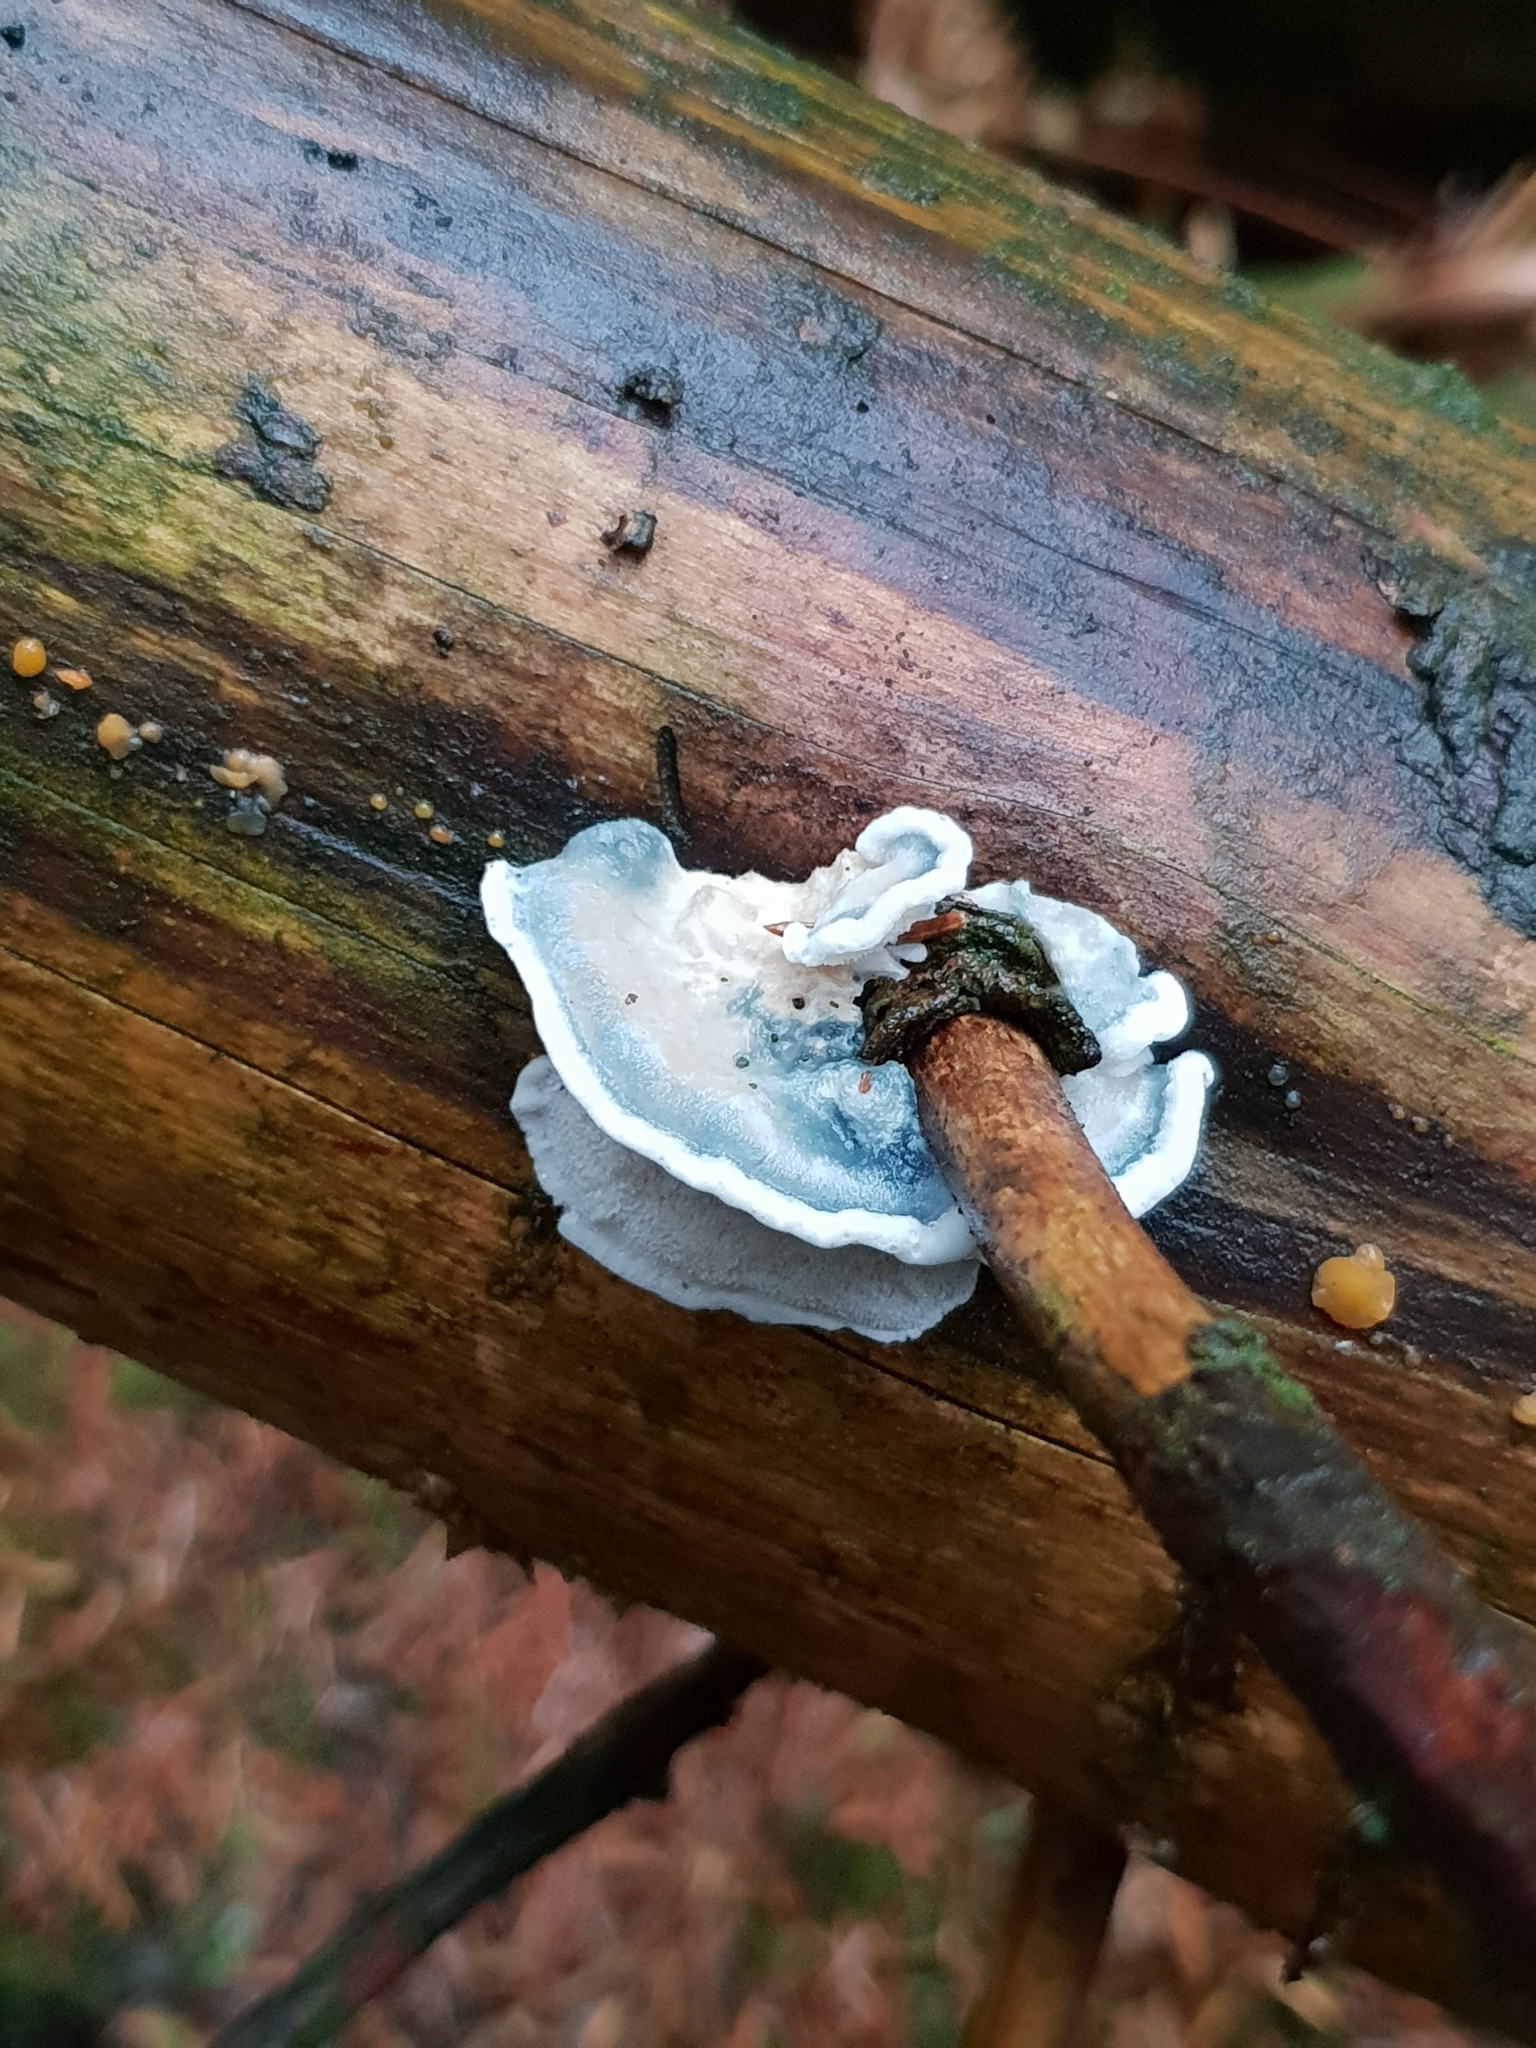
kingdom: Fungi
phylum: Basidiomycota
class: Agaricomycetes
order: Polyporales
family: Polyporaceae
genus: Cyanosporus
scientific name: Cyanosporus cyanescens
